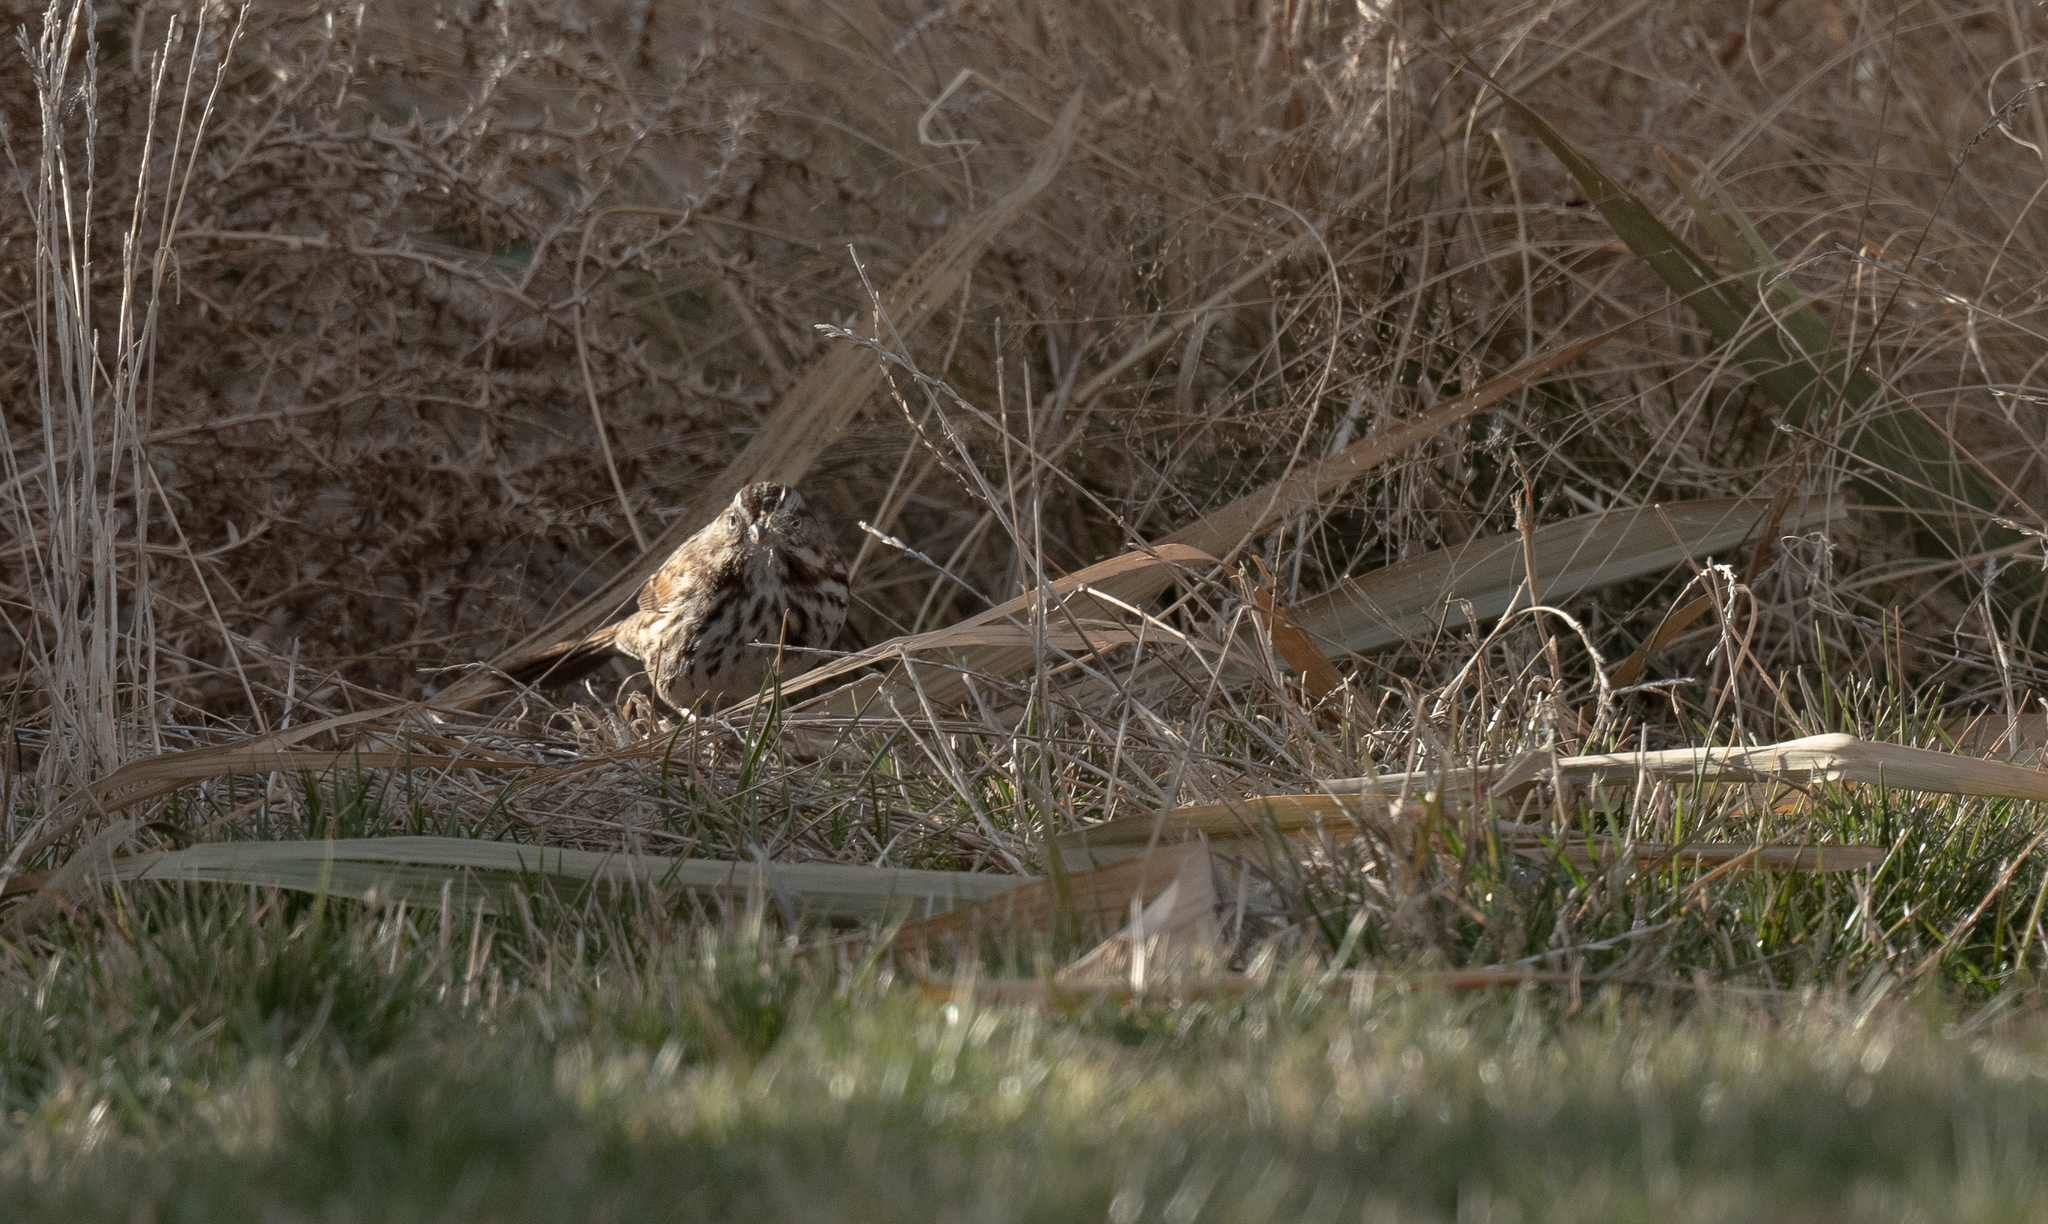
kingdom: Animalia
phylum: Chordata
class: Aves
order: Passeriformes
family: Passerellidae
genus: Melospiza
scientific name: Melospiza melodia
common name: Song sparrow
